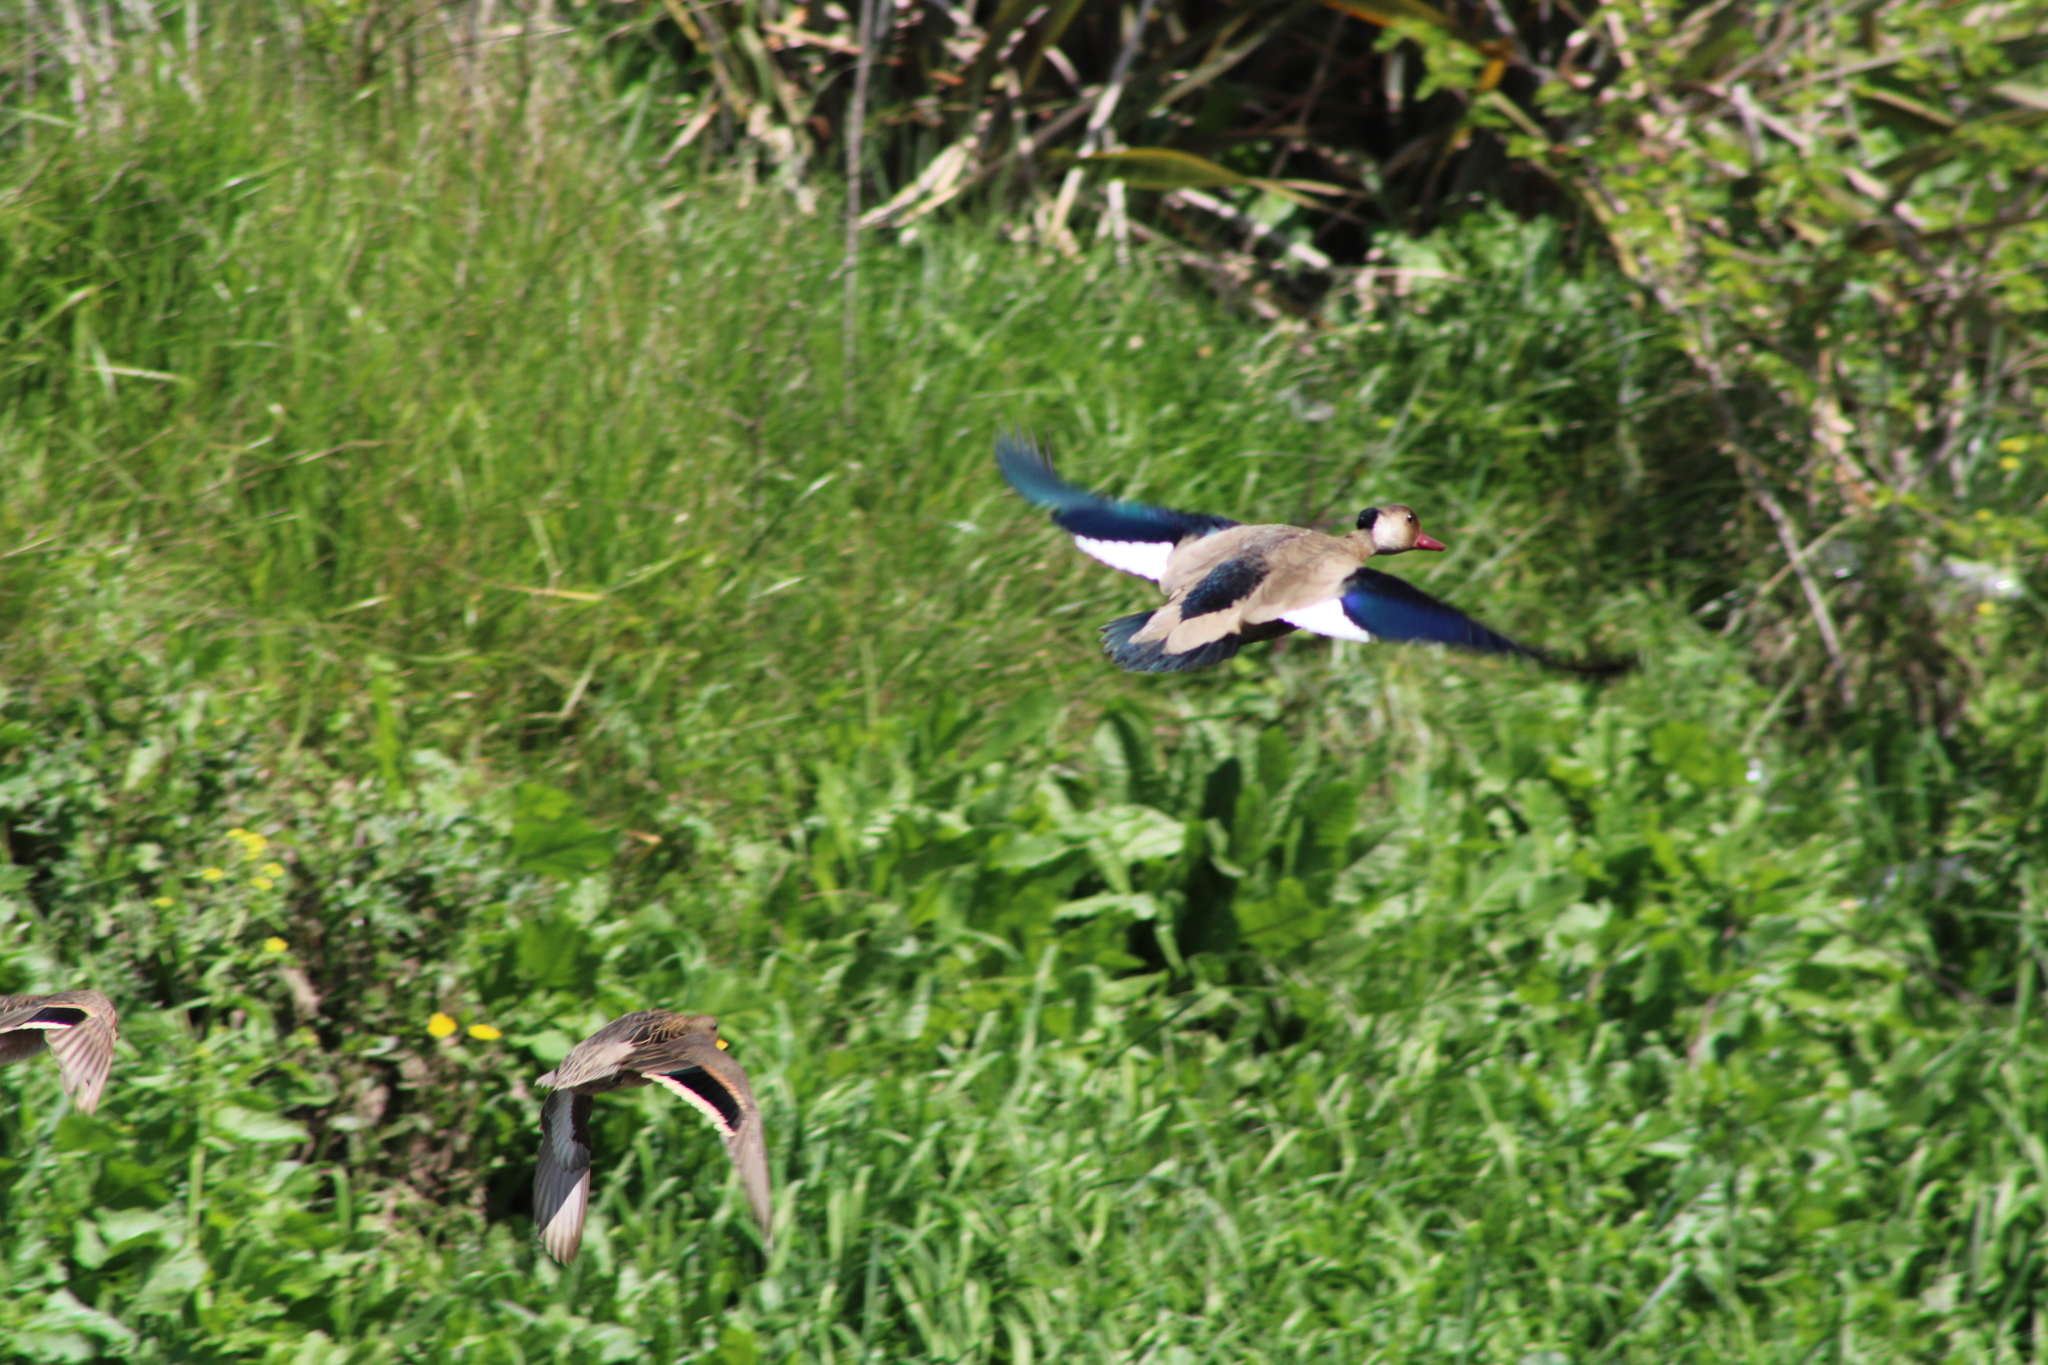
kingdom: Animalia
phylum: Chordata
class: Aves
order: Anseriformes
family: Anatidae
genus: Anas
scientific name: Anas flavirostris
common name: Yellow-billed teal
